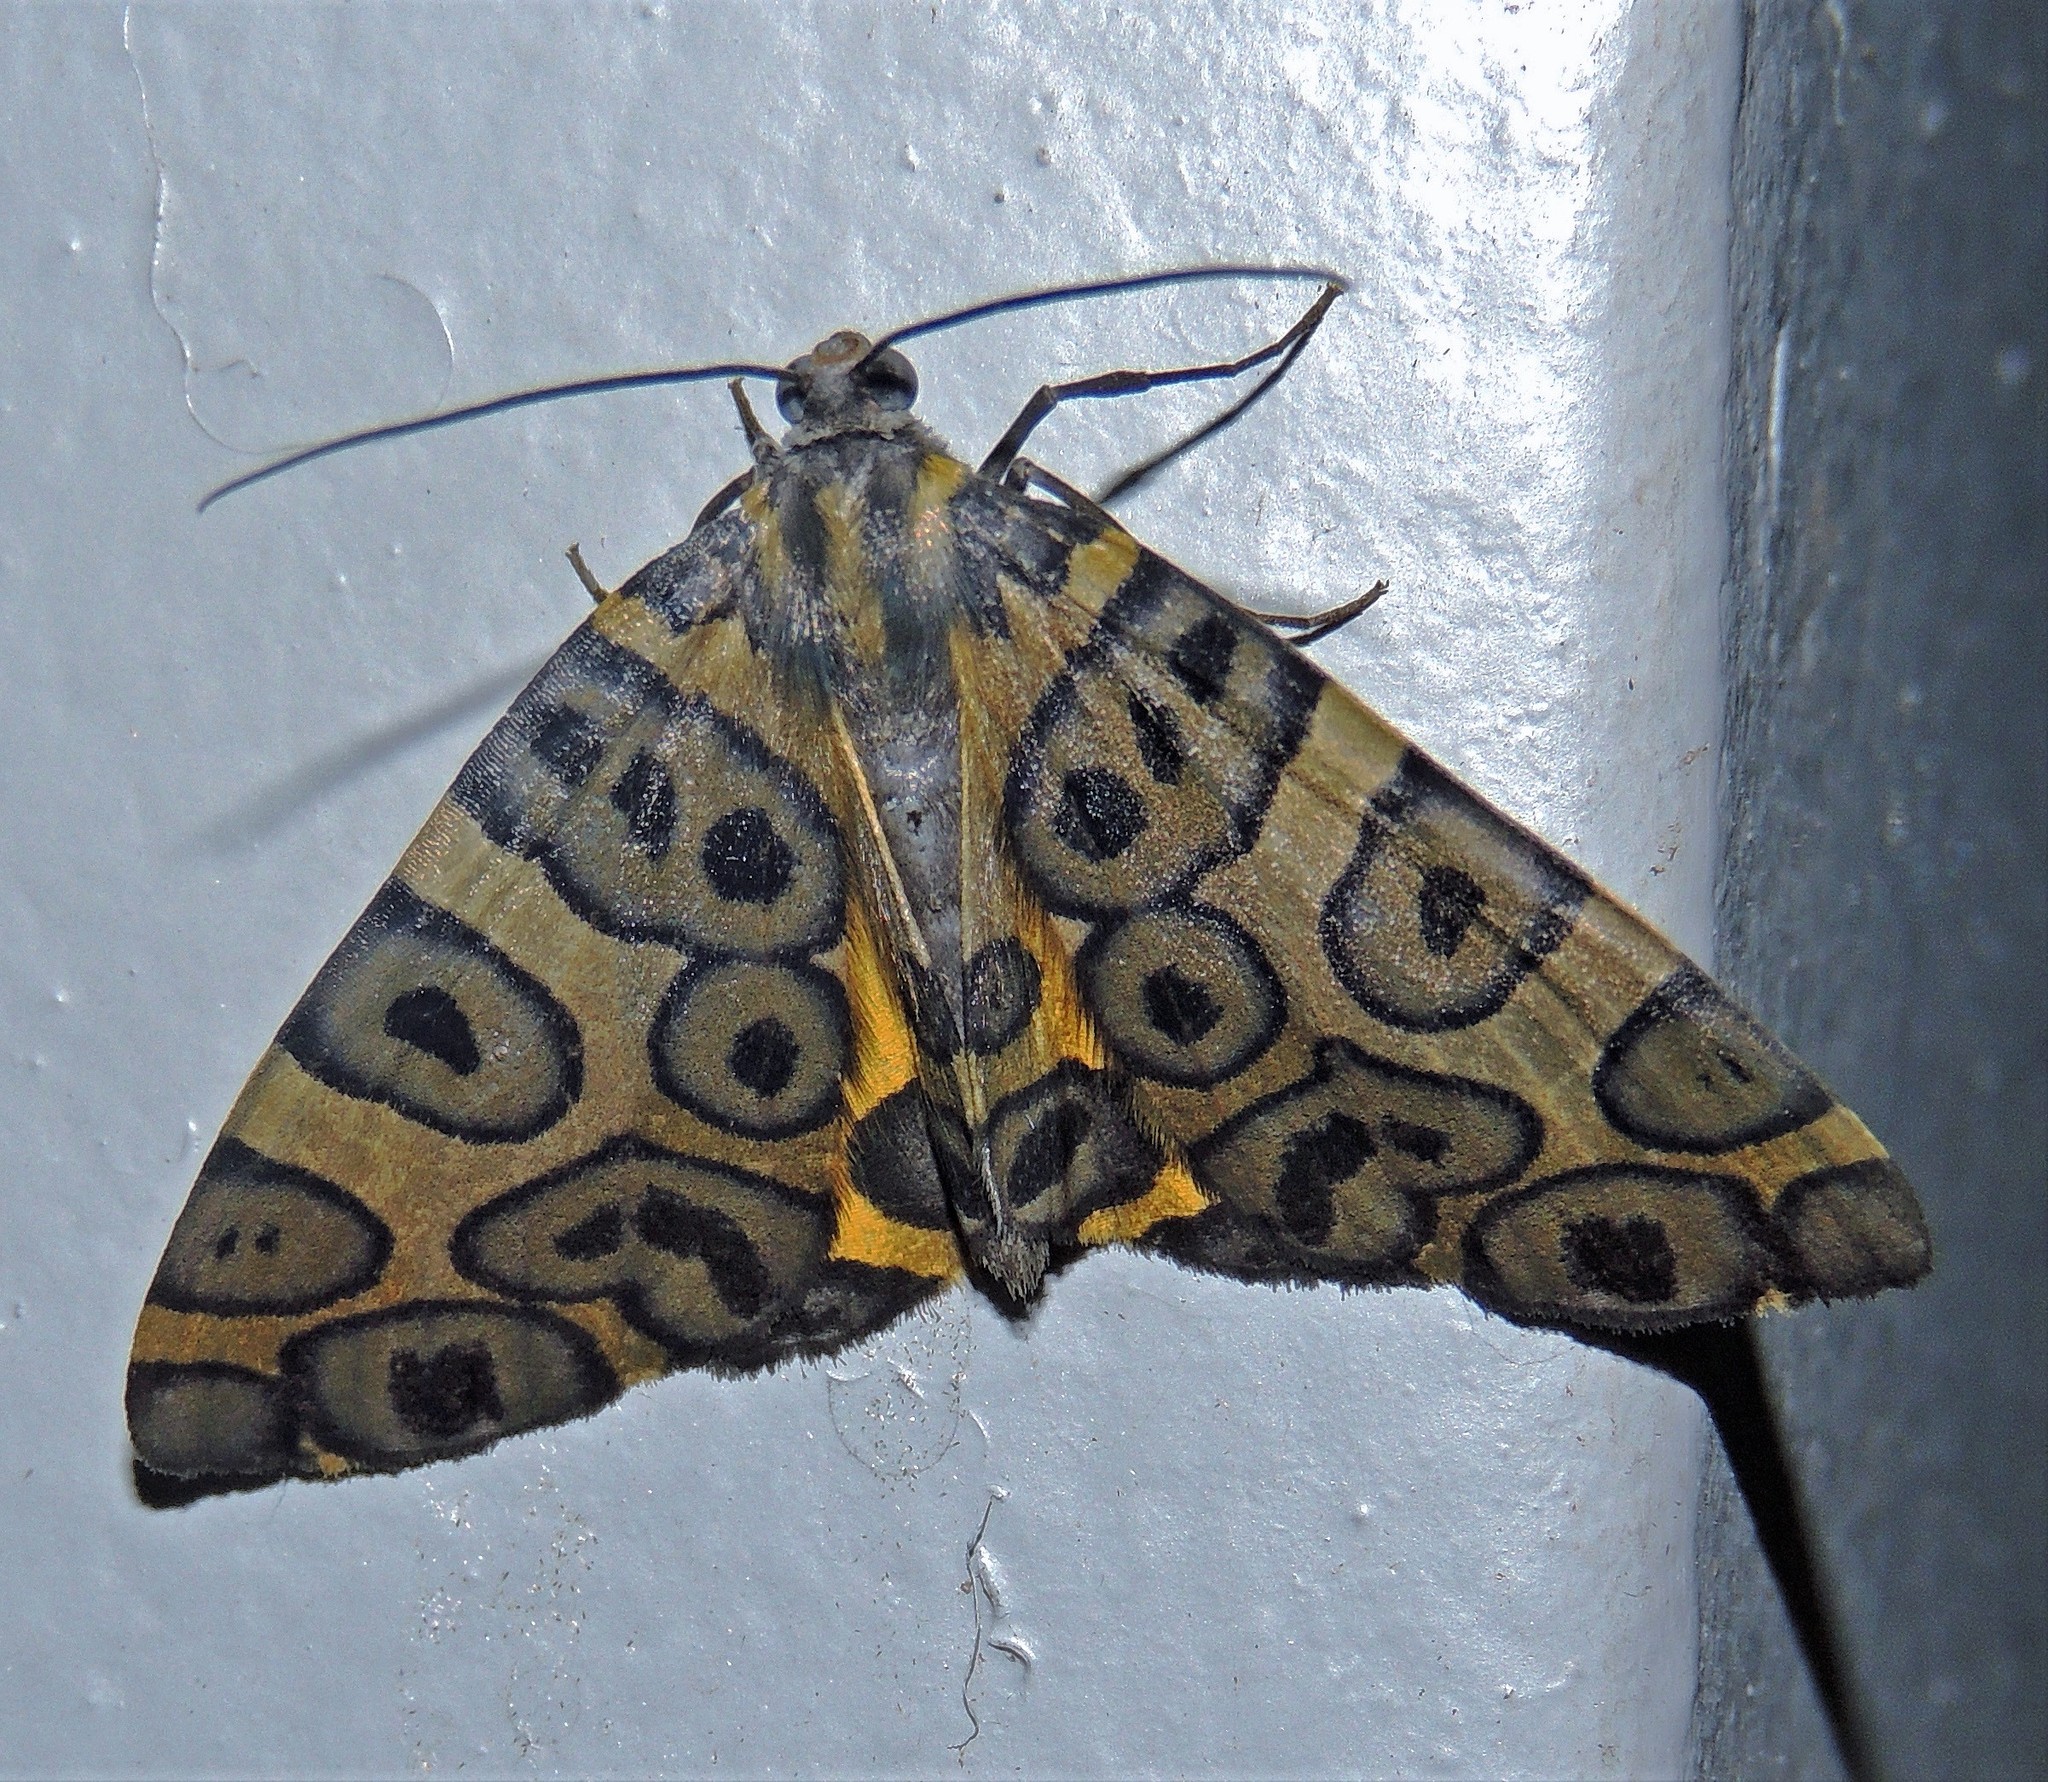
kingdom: Animalia
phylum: Arthropoda
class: Insecta
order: Lepidoptera
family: Geometridae
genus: Pantherodes
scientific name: Pantherodes pardalaria
